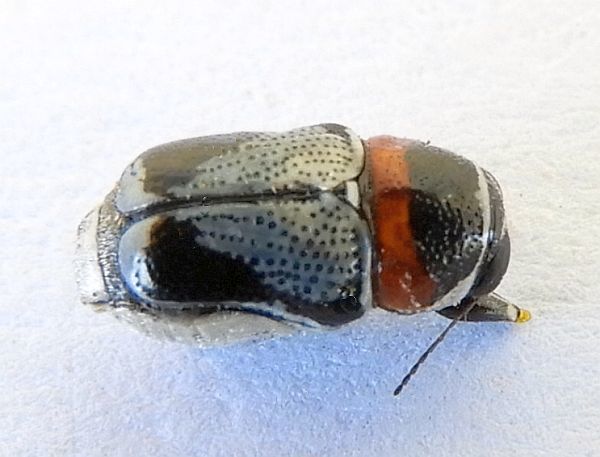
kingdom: Animalia
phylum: Arthropoda
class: Insecta
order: Coleoptera
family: Chrysomelidae
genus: Griburius
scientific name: Griburius montezuma
